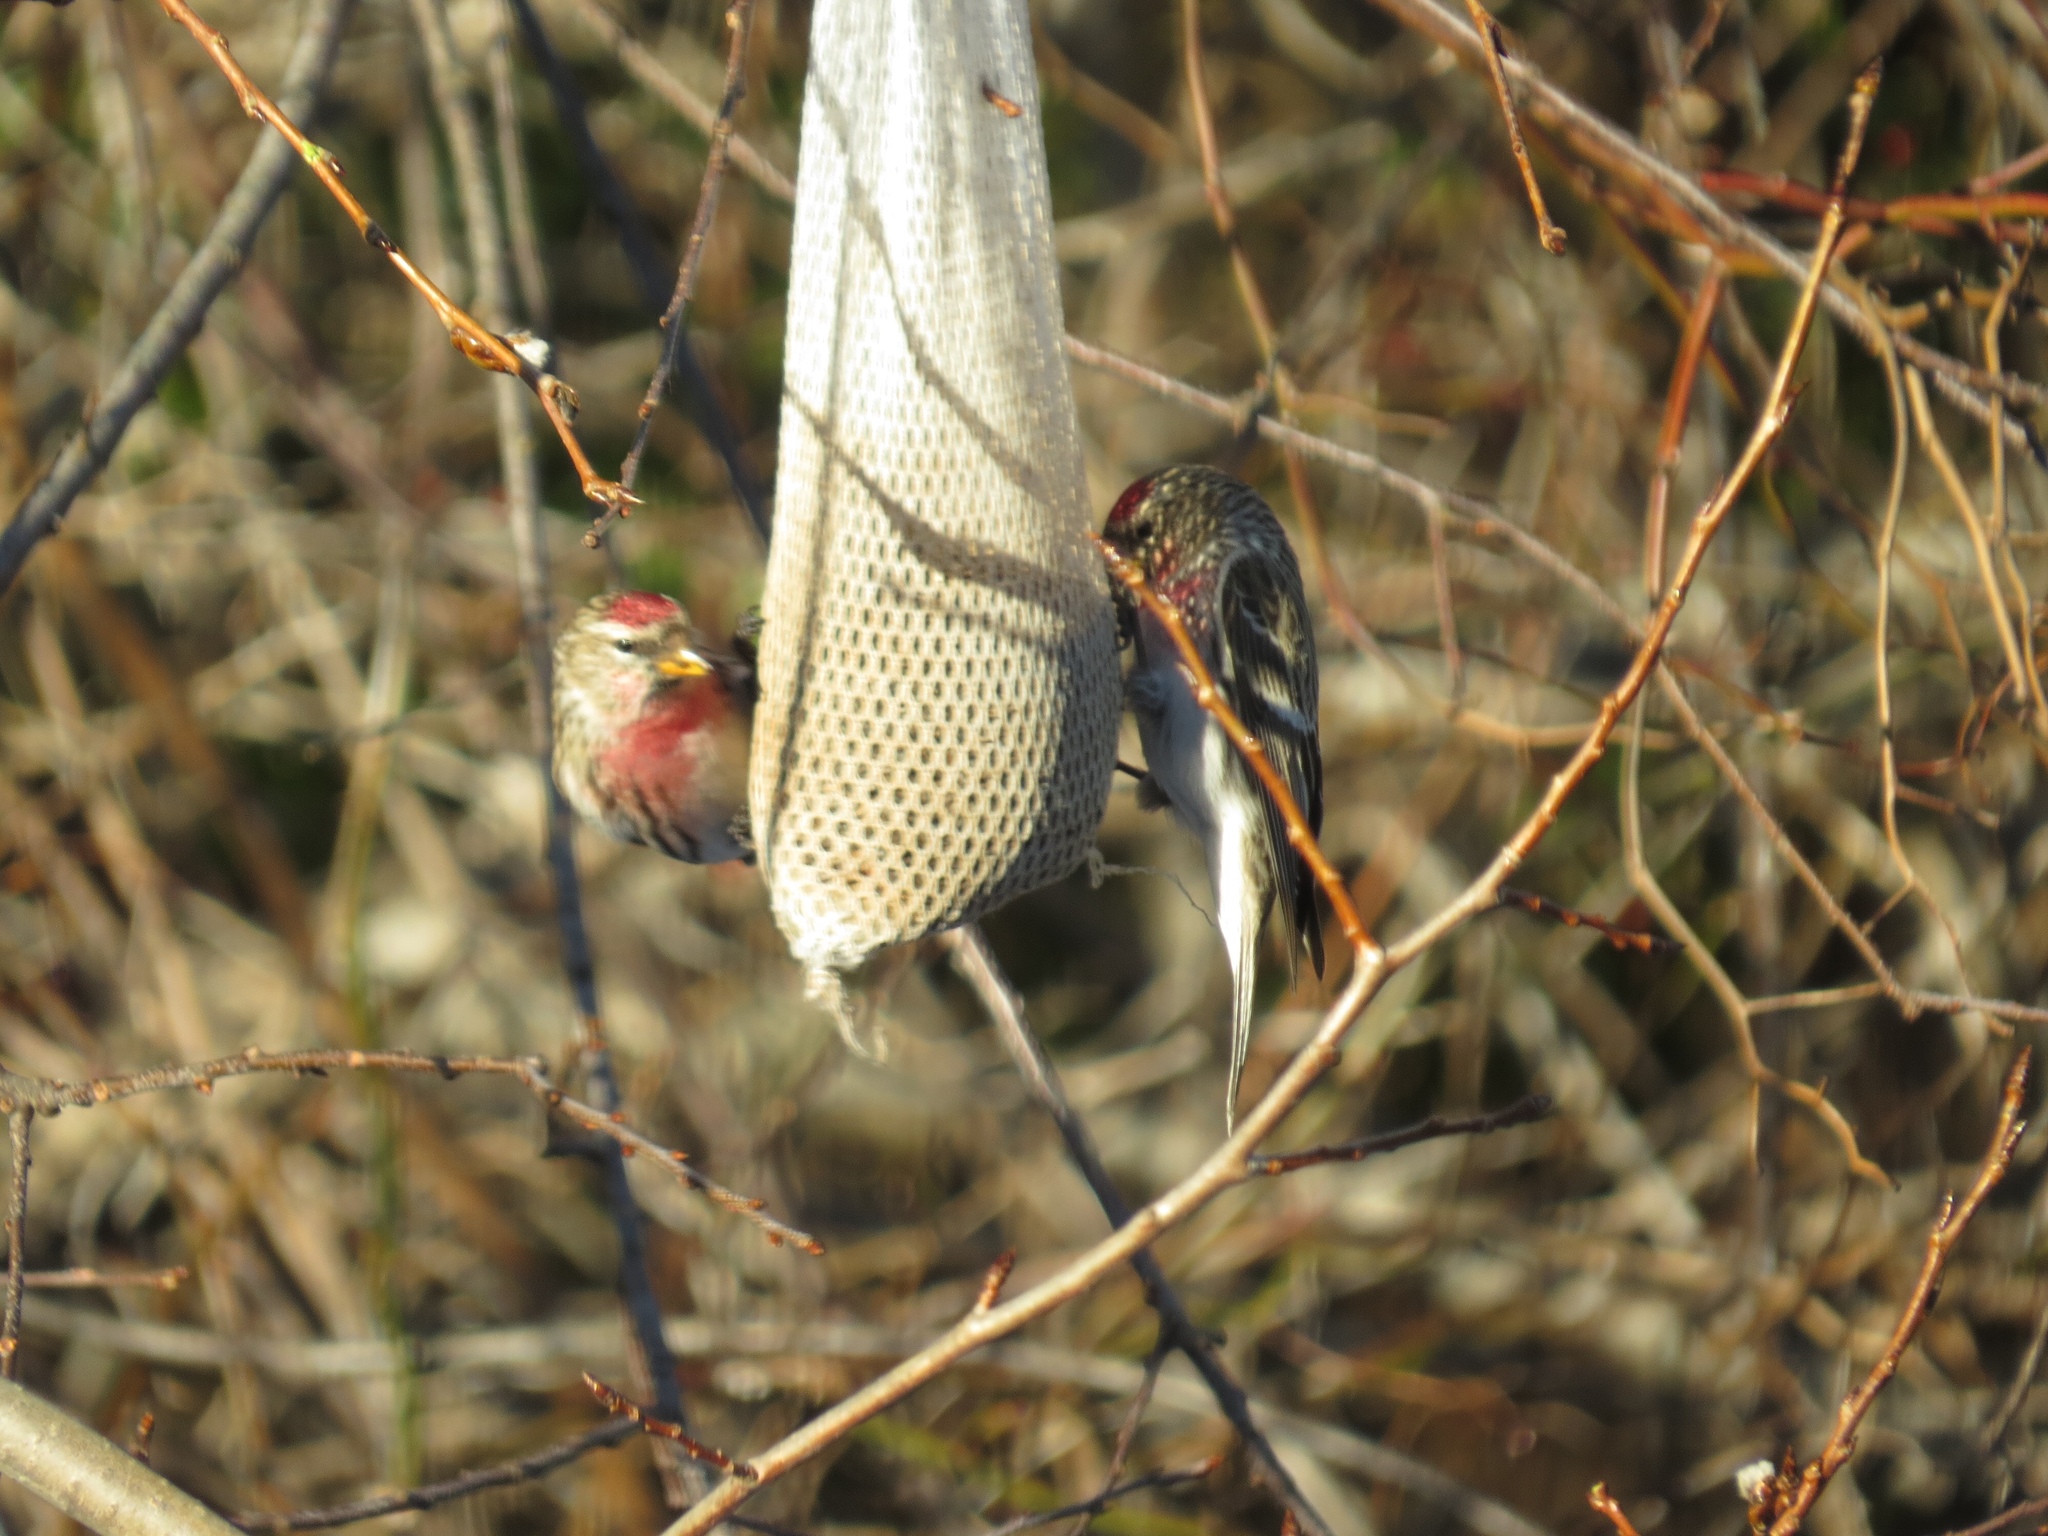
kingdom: Animalia
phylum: Chordata
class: Aves
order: Passeriformes
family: Fringillidae
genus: Acanthis
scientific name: Acanthis flammea
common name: Common redpoll
